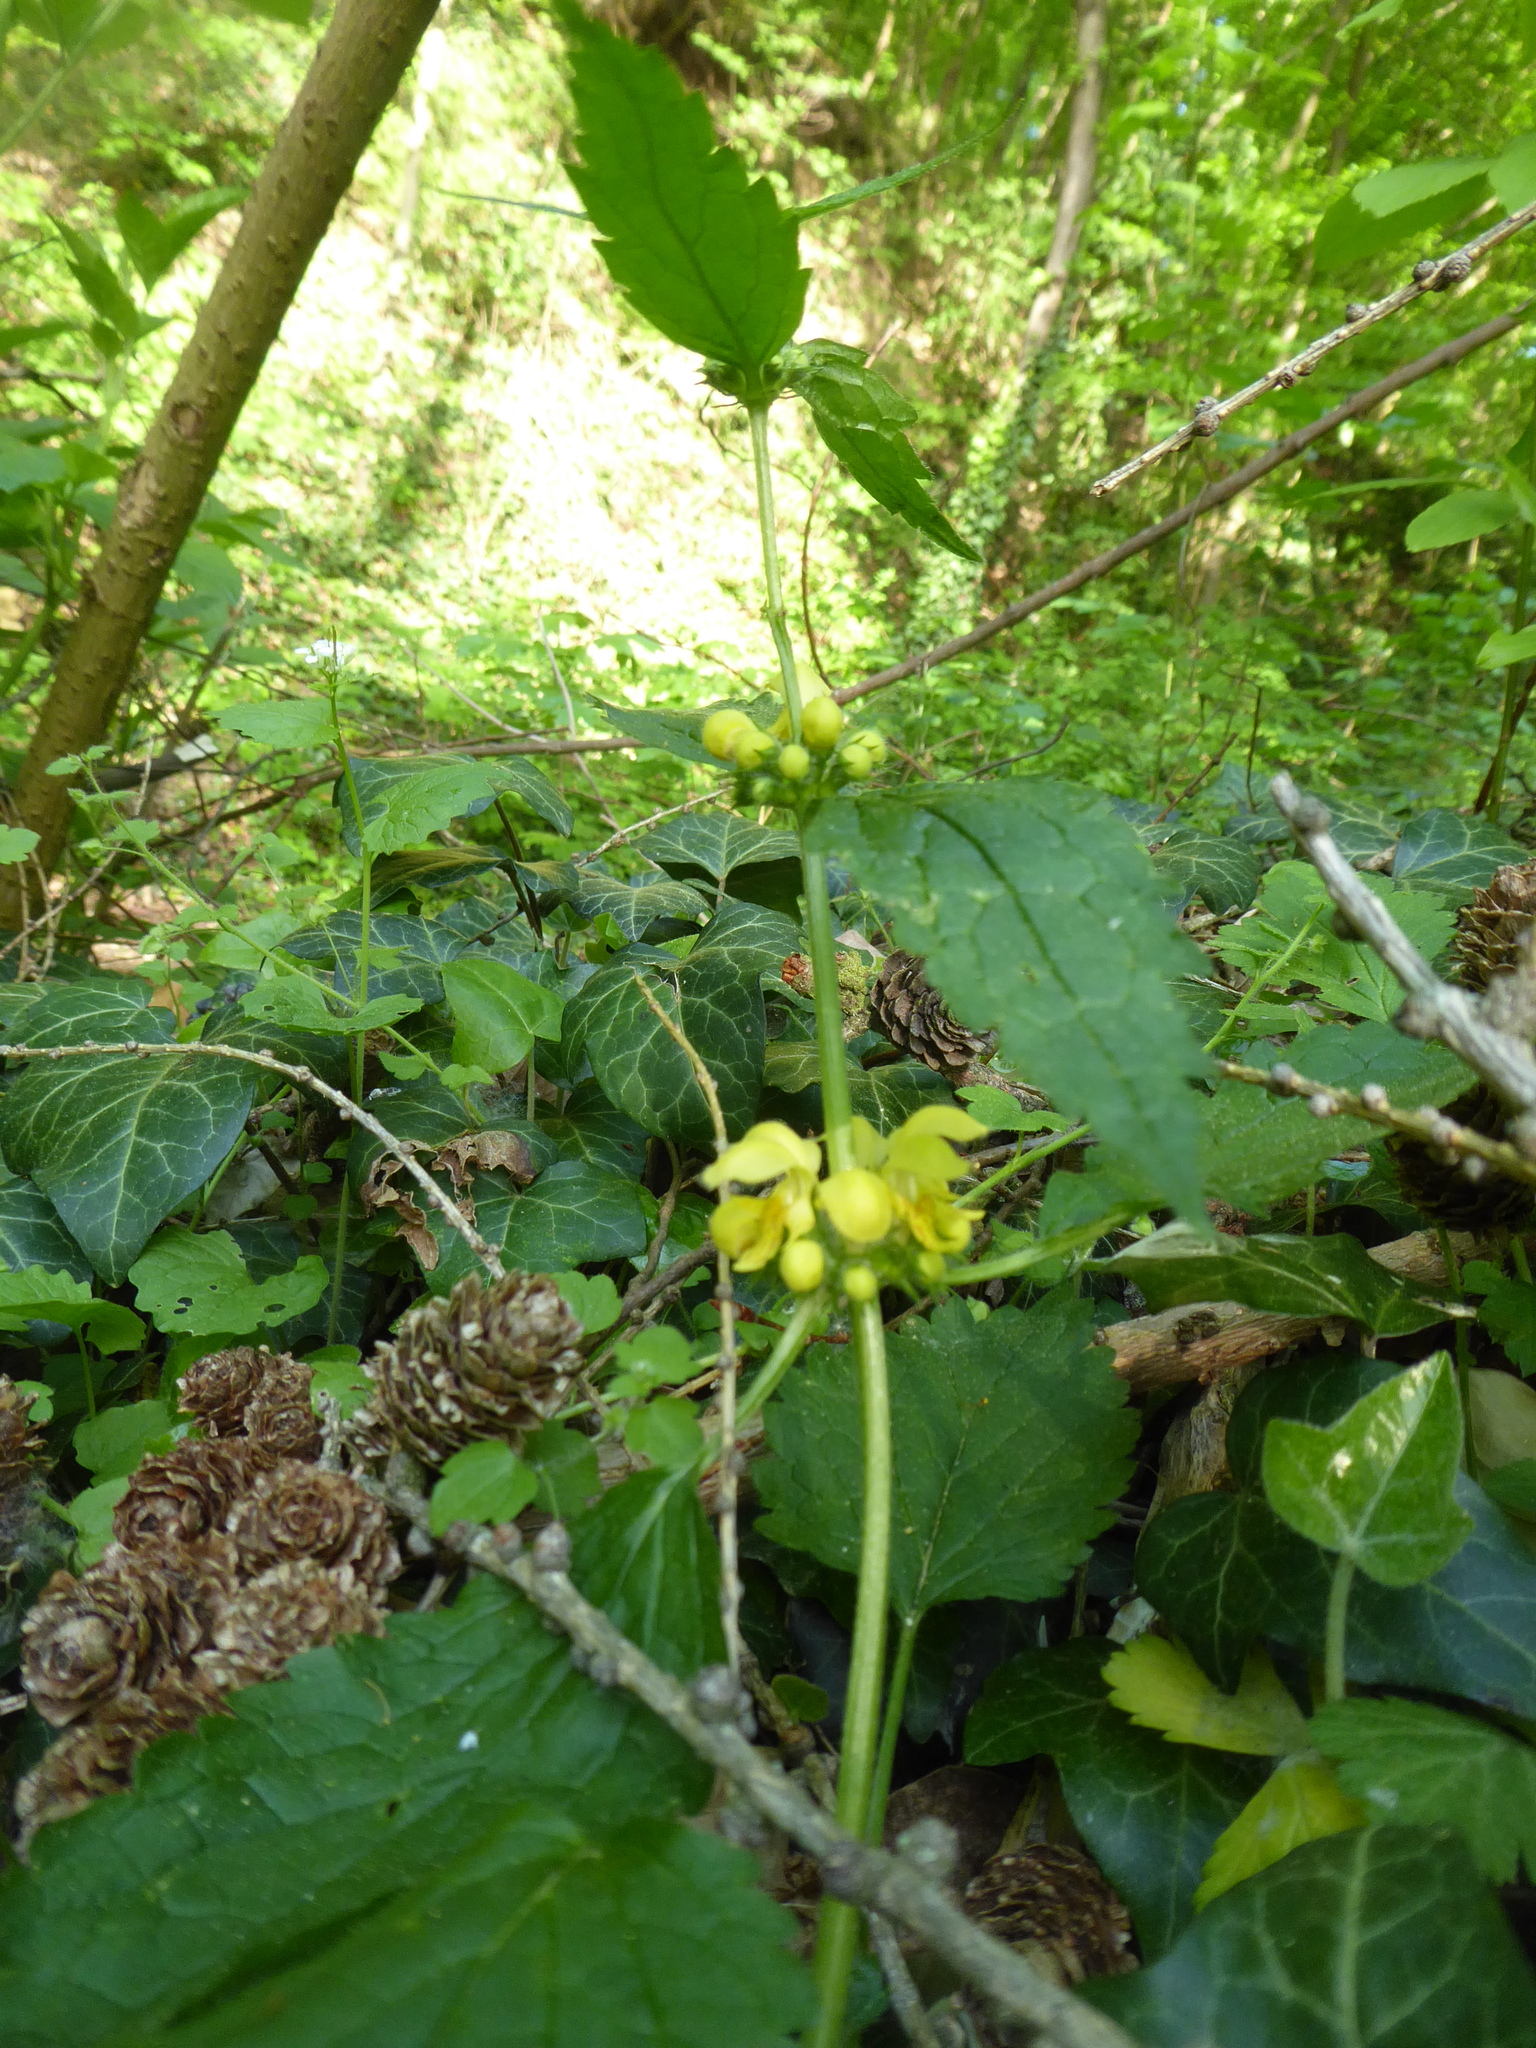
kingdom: Plantae
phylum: Tracheophyta
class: Magnoliopsida
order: Lamiales
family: Lamiaceae
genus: Lamium
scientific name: Lamium galeobdolon
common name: Yellow archangel
